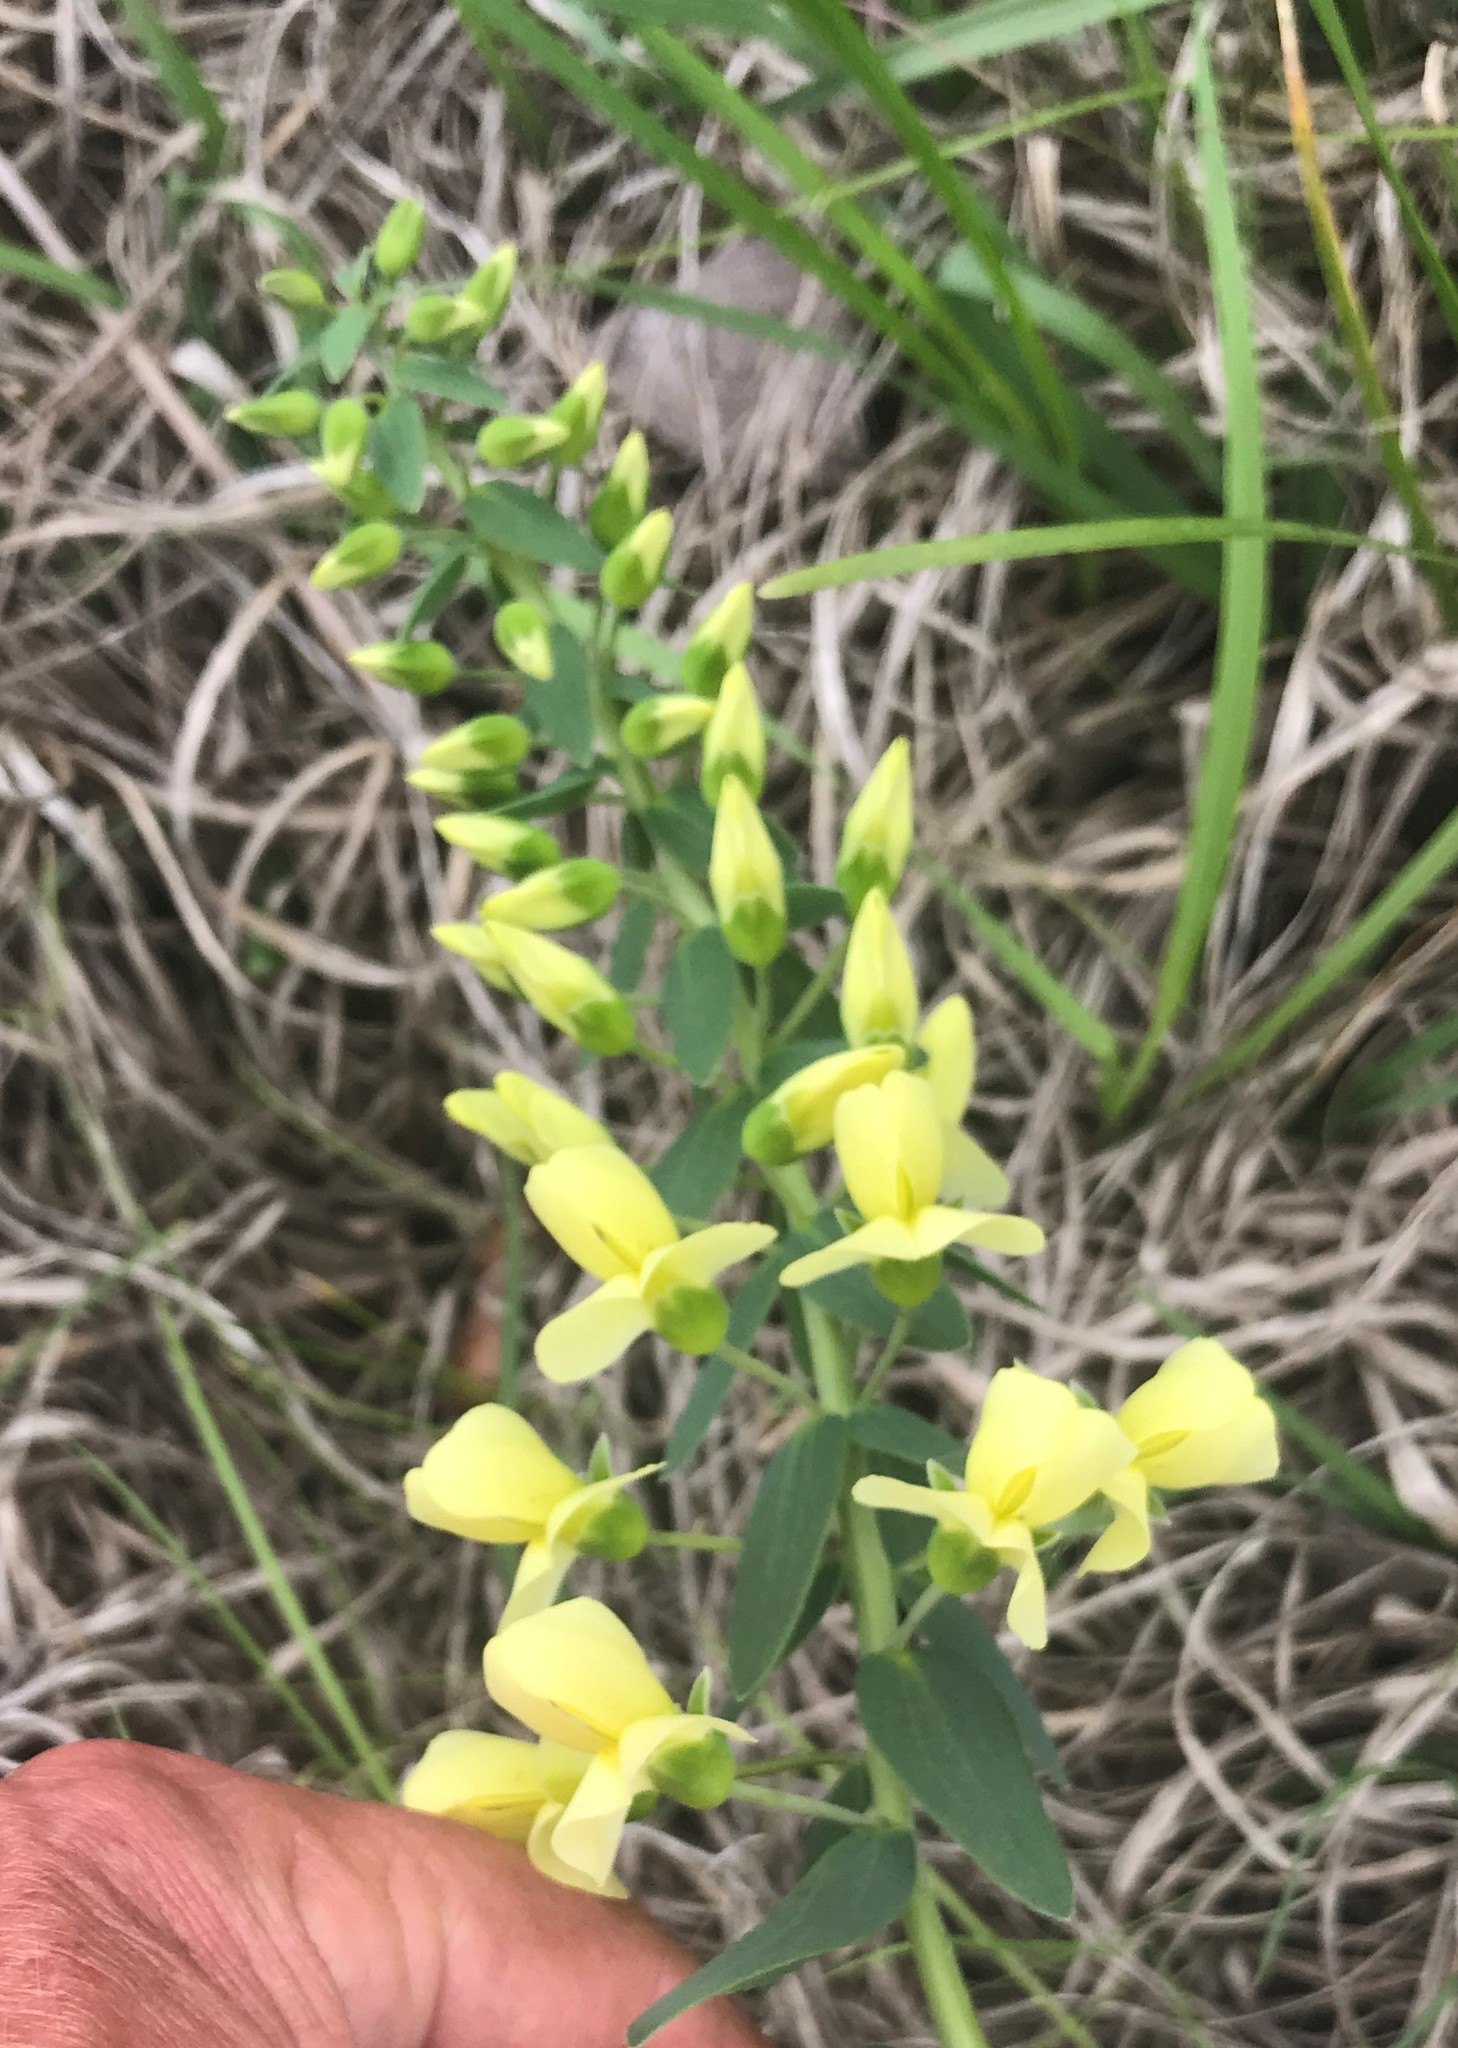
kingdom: Plantae
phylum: Tracheophyta
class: Magnoliopsida
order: Fabales
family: Fabaceae
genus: Baptisia
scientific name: Baptisia bracteata
